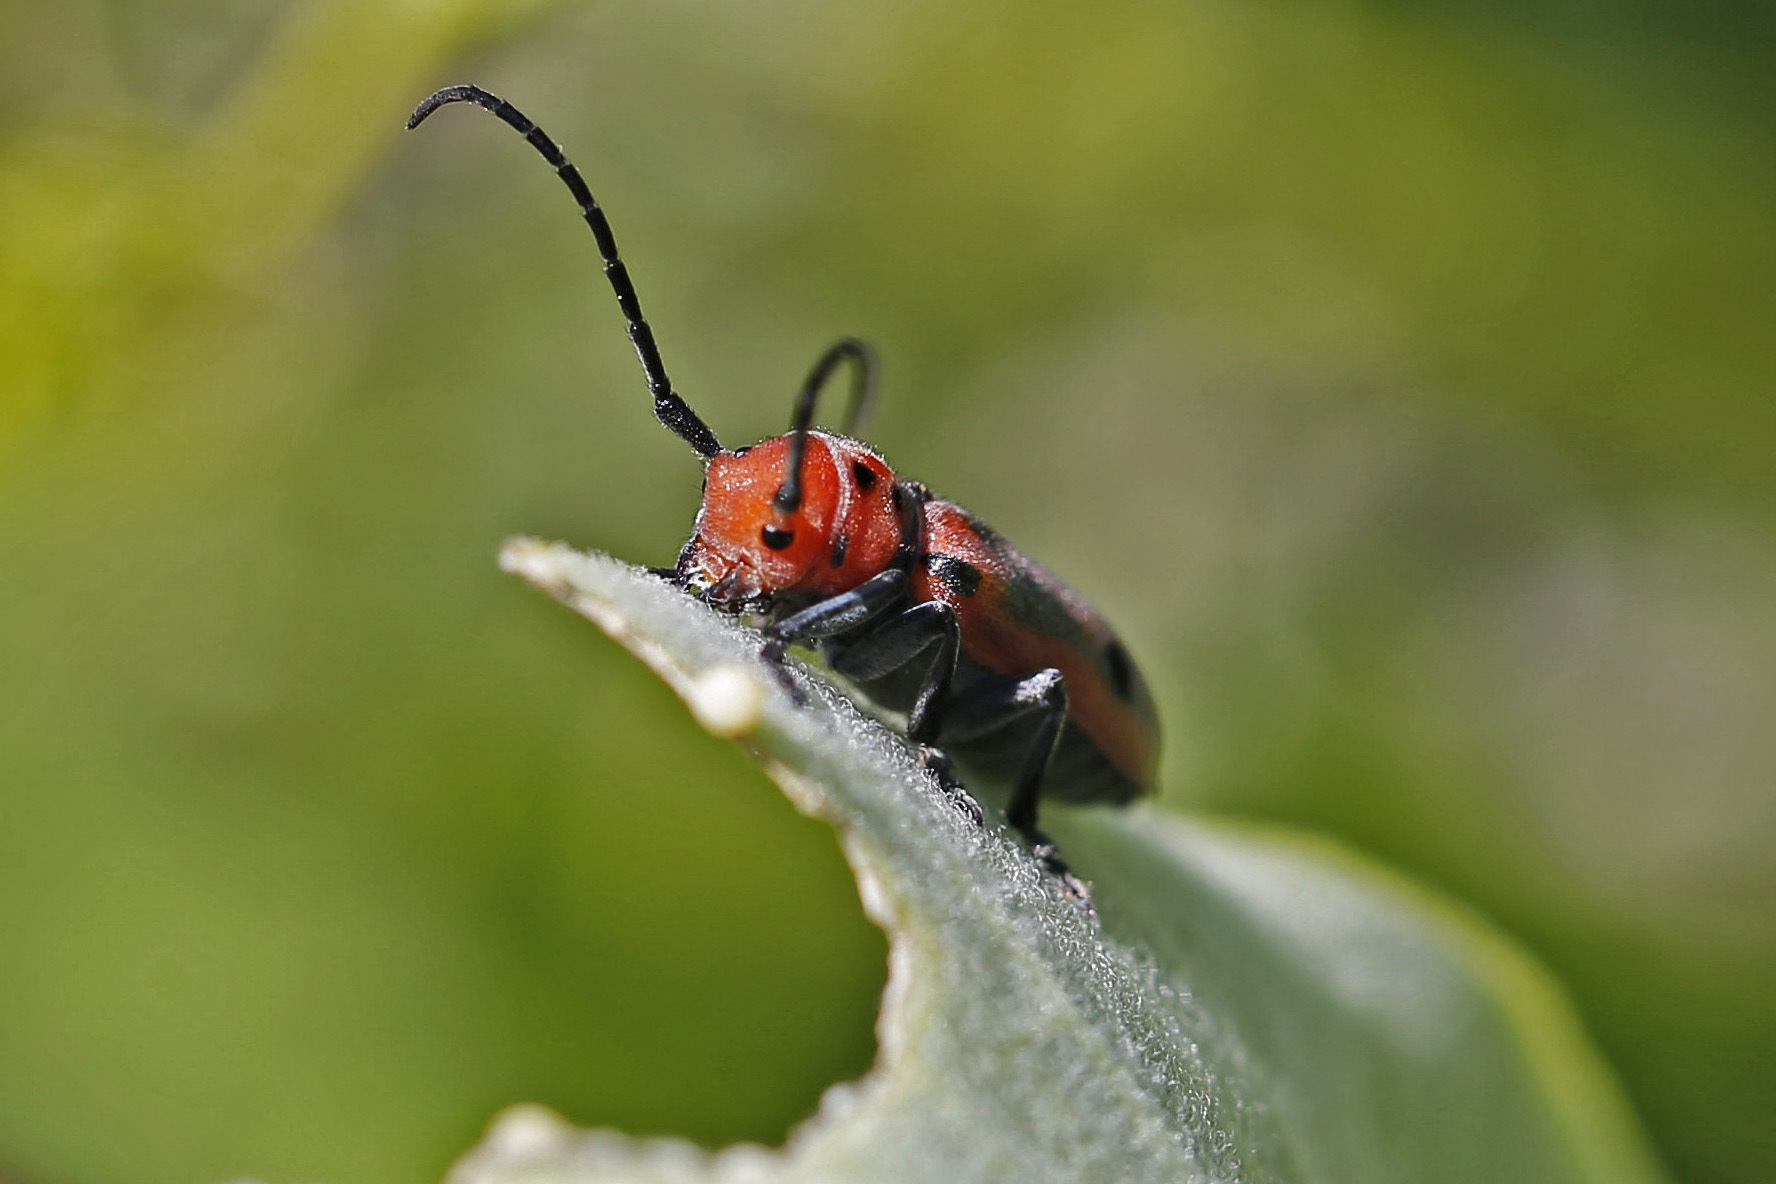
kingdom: Animalia
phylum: Arthropoda
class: Insecta
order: Coleoptera
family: Cerambycidae
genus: Tetraopes
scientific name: Tetraopes tetrophthalmus
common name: Red milkweed beetle
